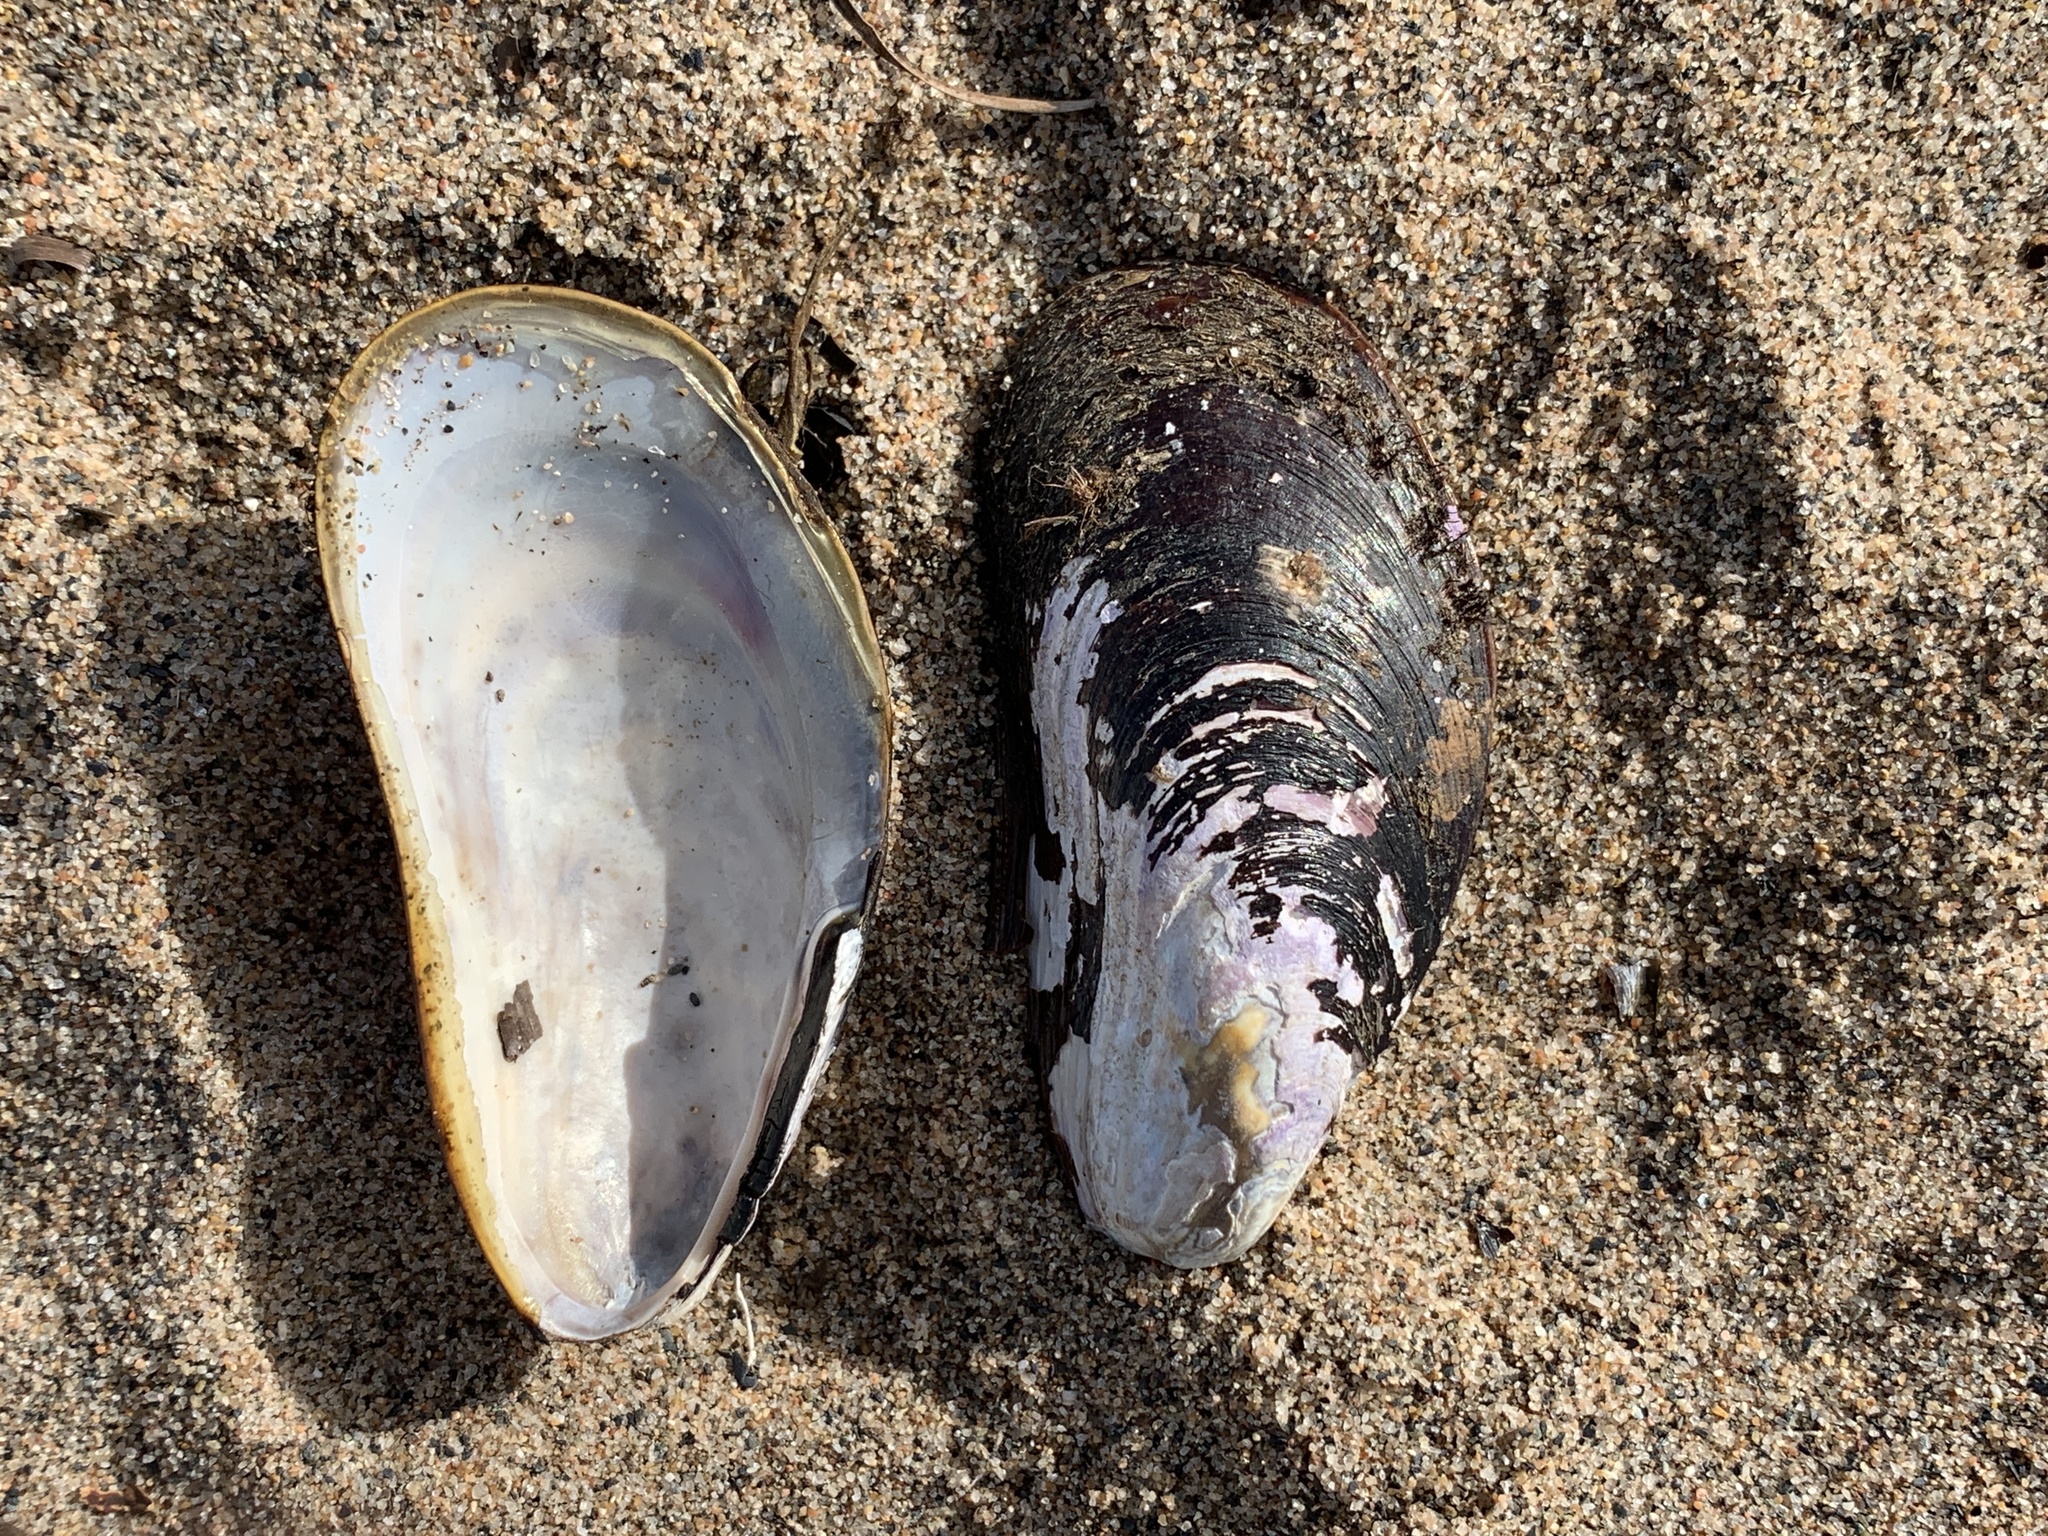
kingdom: Animalia
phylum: Mollusca
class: Bivalvia
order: Mytilida
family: Mytilidae
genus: Modiolus
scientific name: Modiolus modiolus
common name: Horse-mussel
